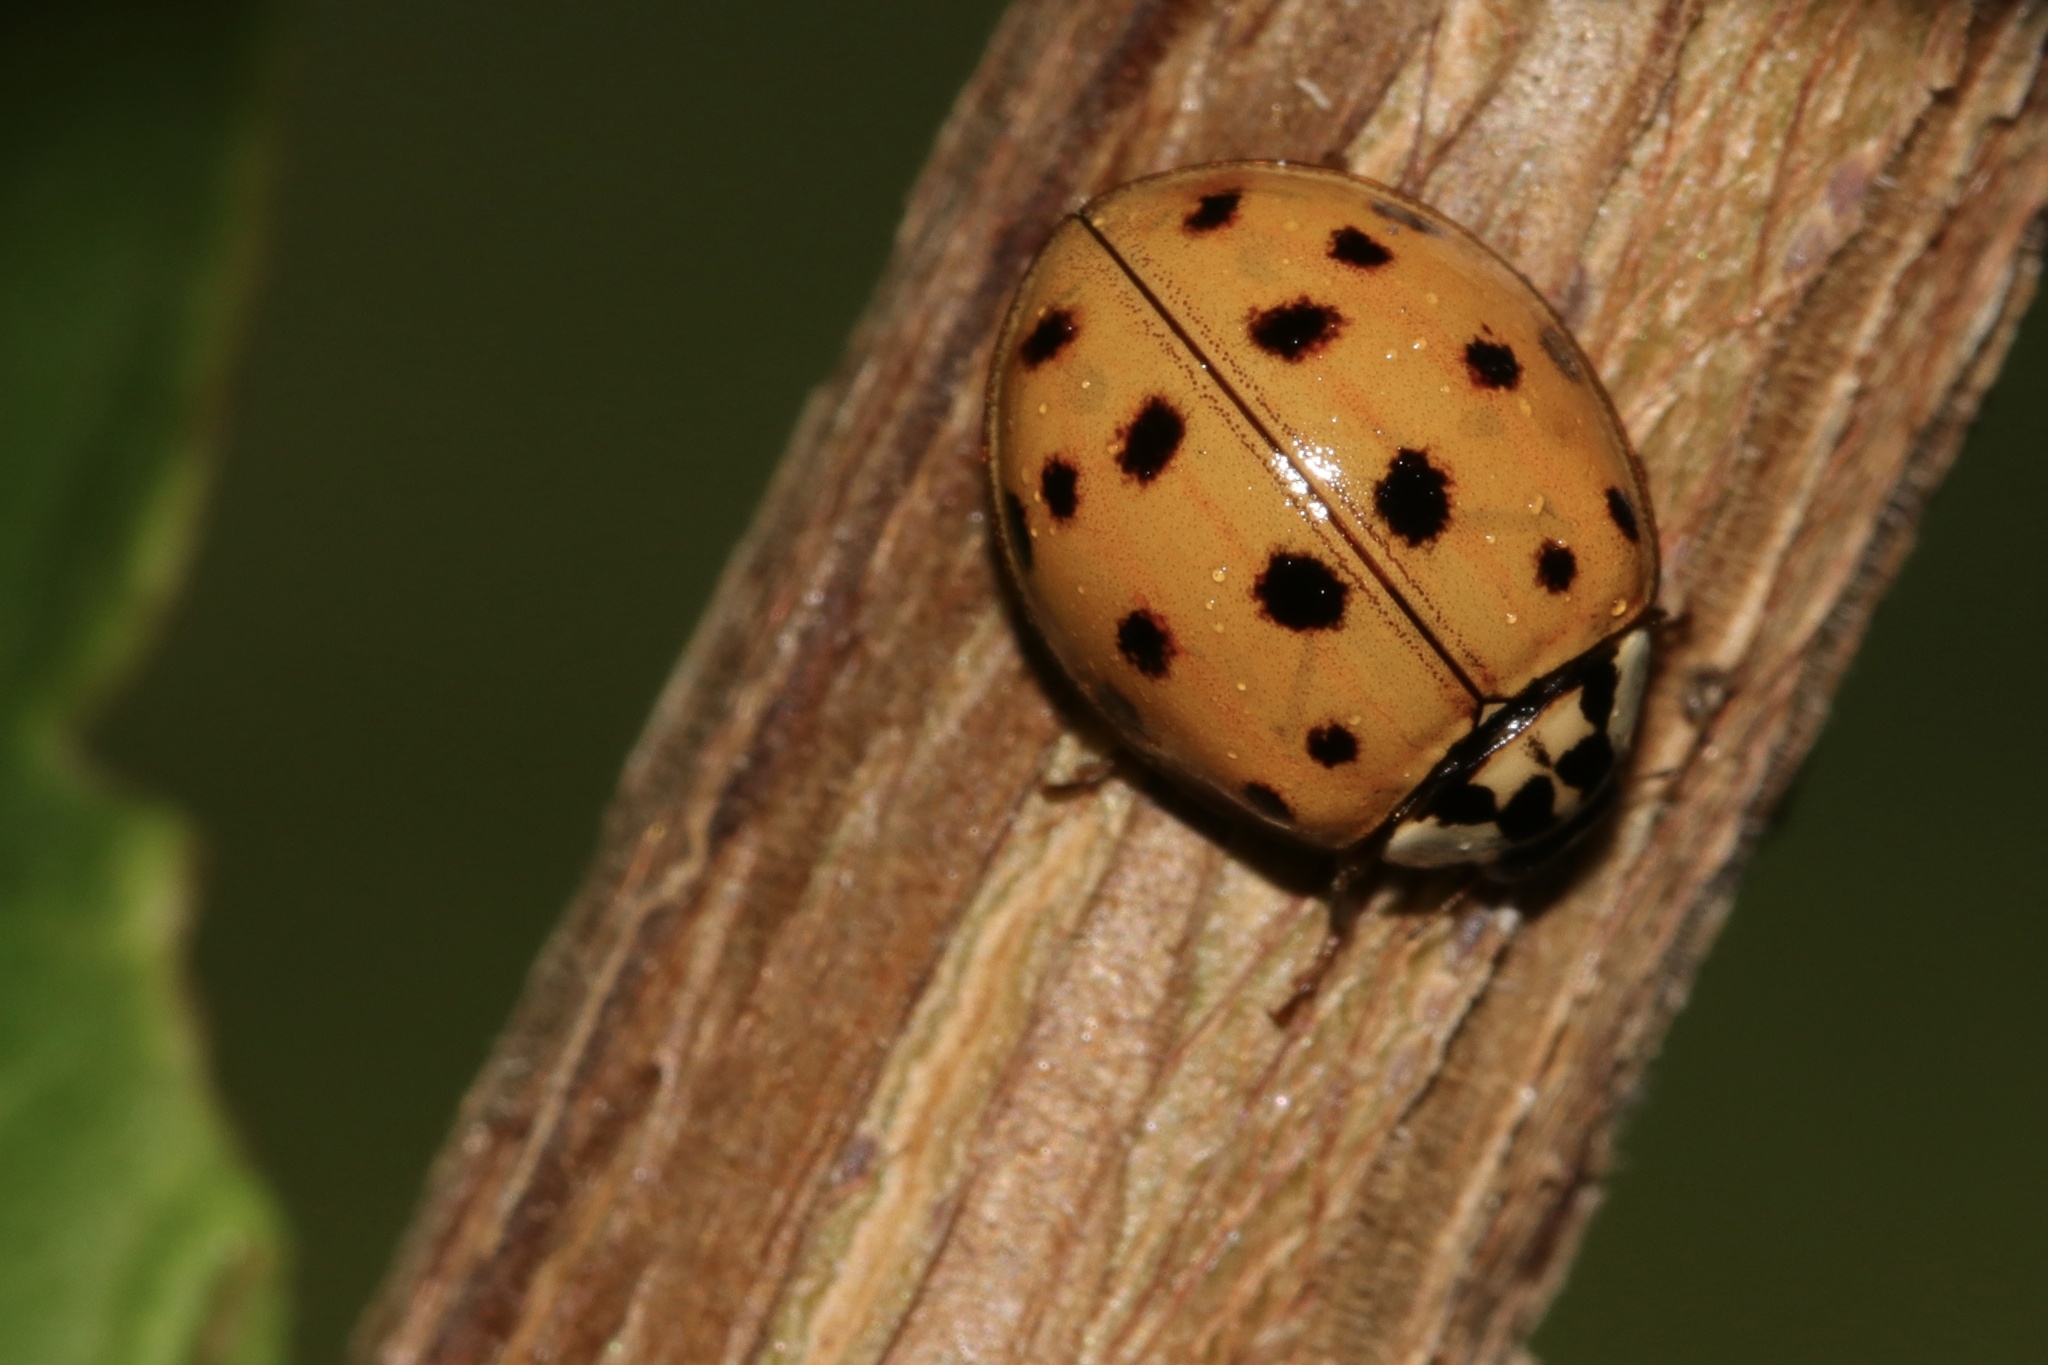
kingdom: Animalia
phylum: Arthropoda
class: Insecta
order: Coleoptera
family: Coccinellidae
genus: Harmonia
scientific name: Harmonia axyridis
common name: Harlequin ladybird
